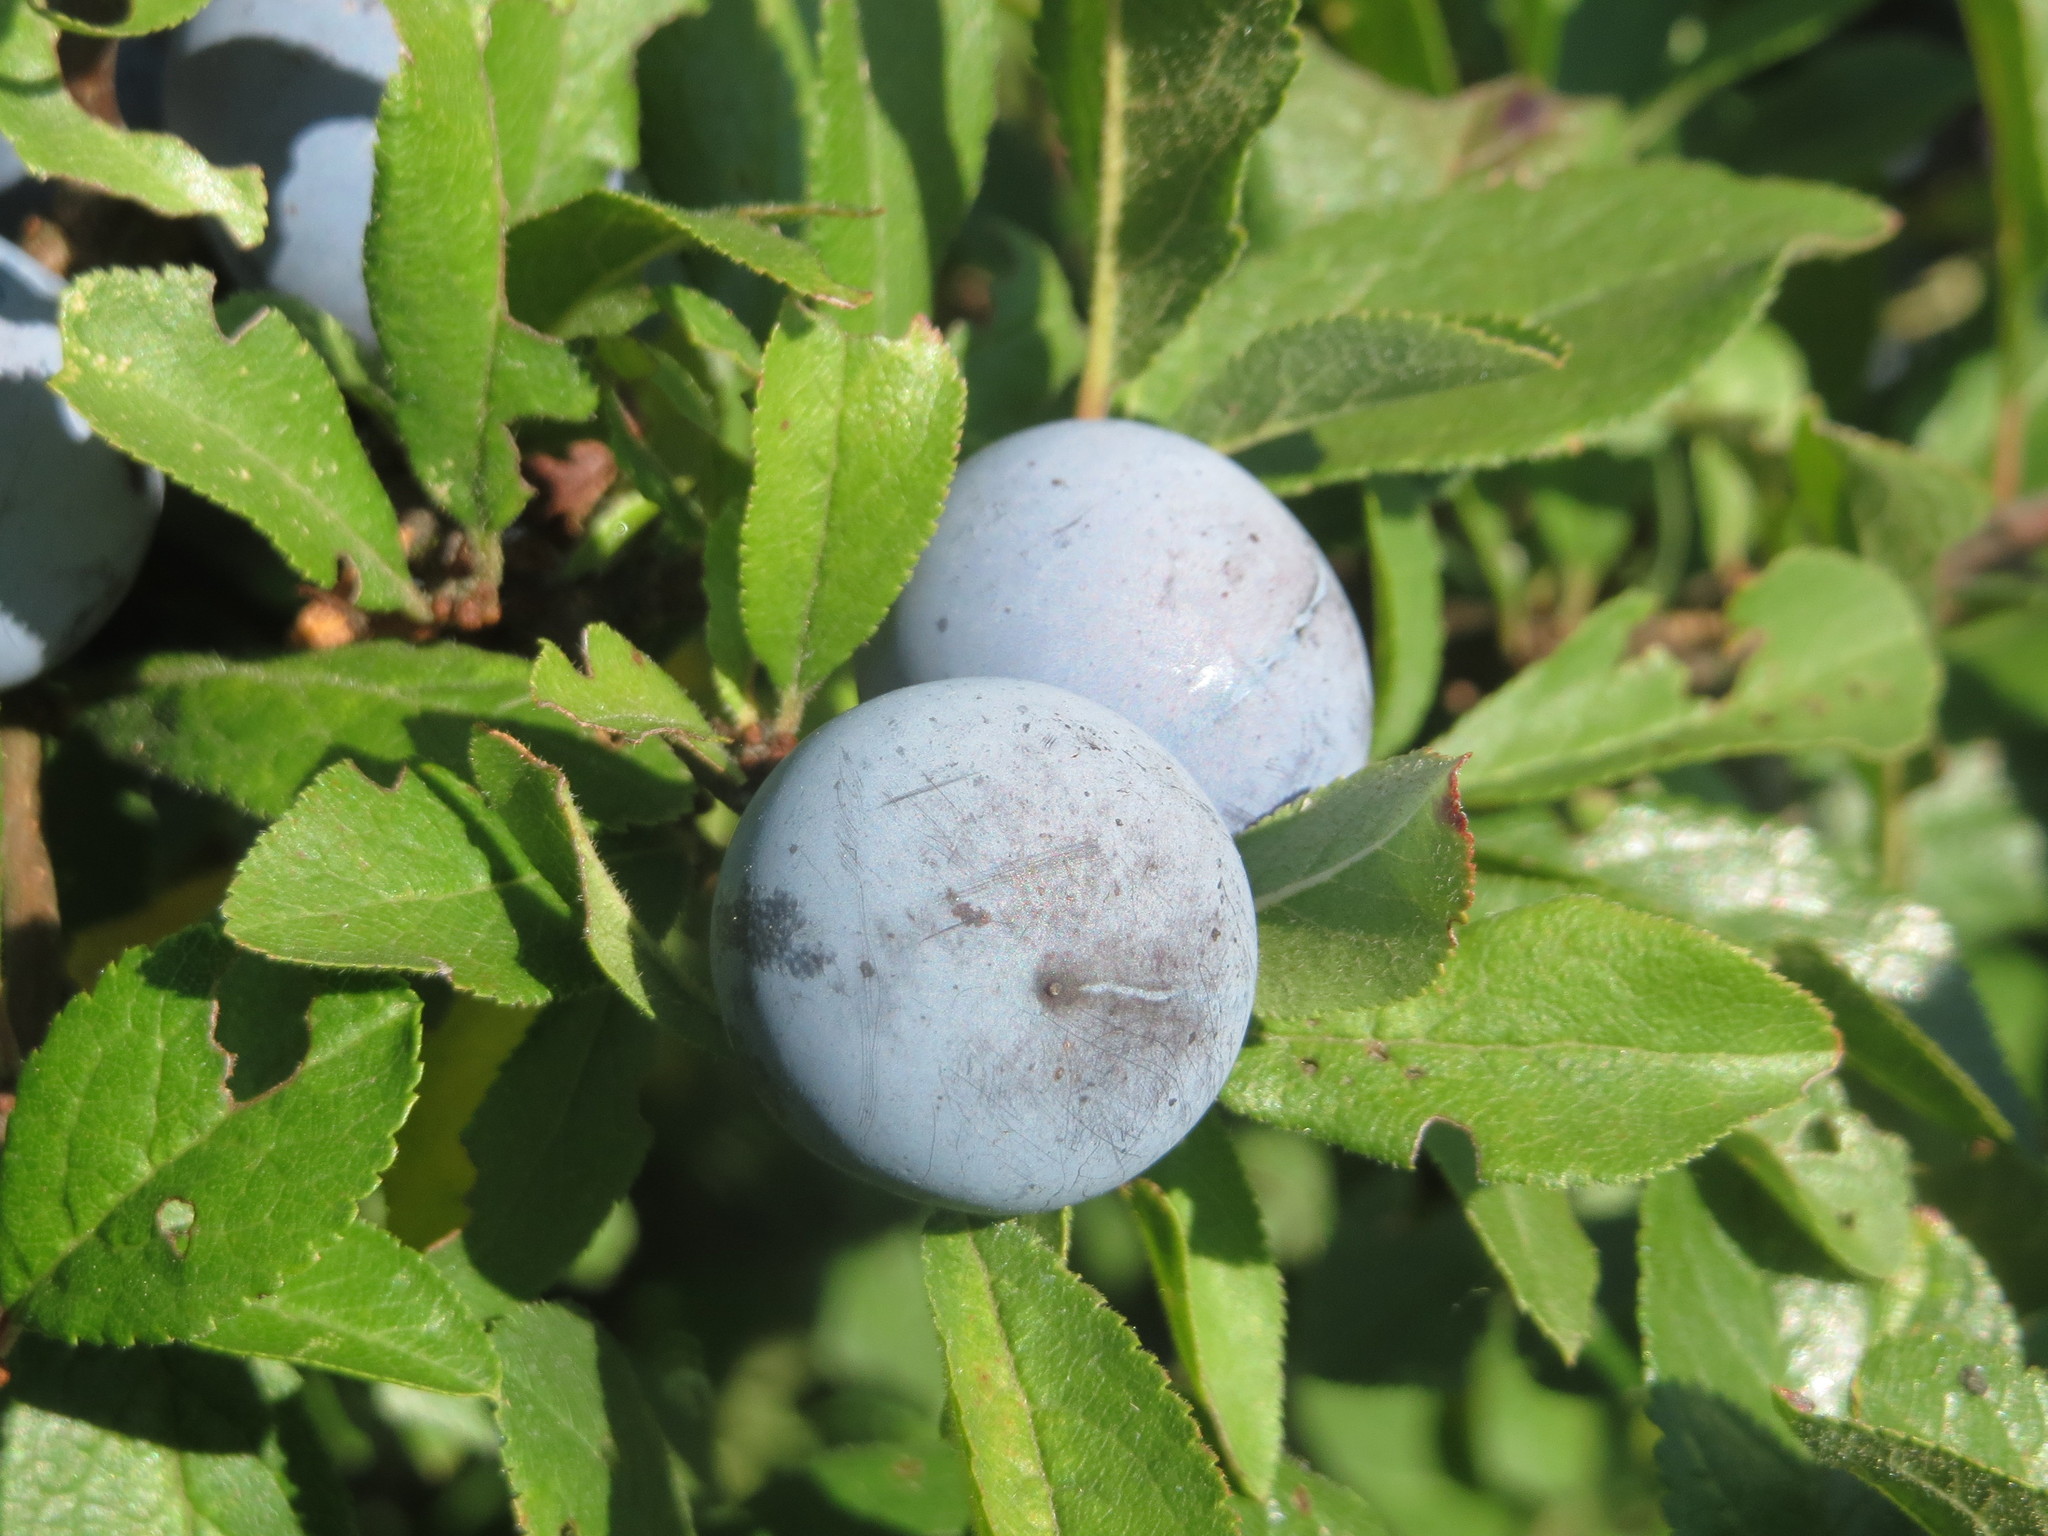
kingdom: Plantae
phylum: Tracheophyta
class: Magnoliopsida
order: Rosales
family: Rosaceae
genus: Prunus
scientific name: Prunus spinosa
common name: Blackthorn
